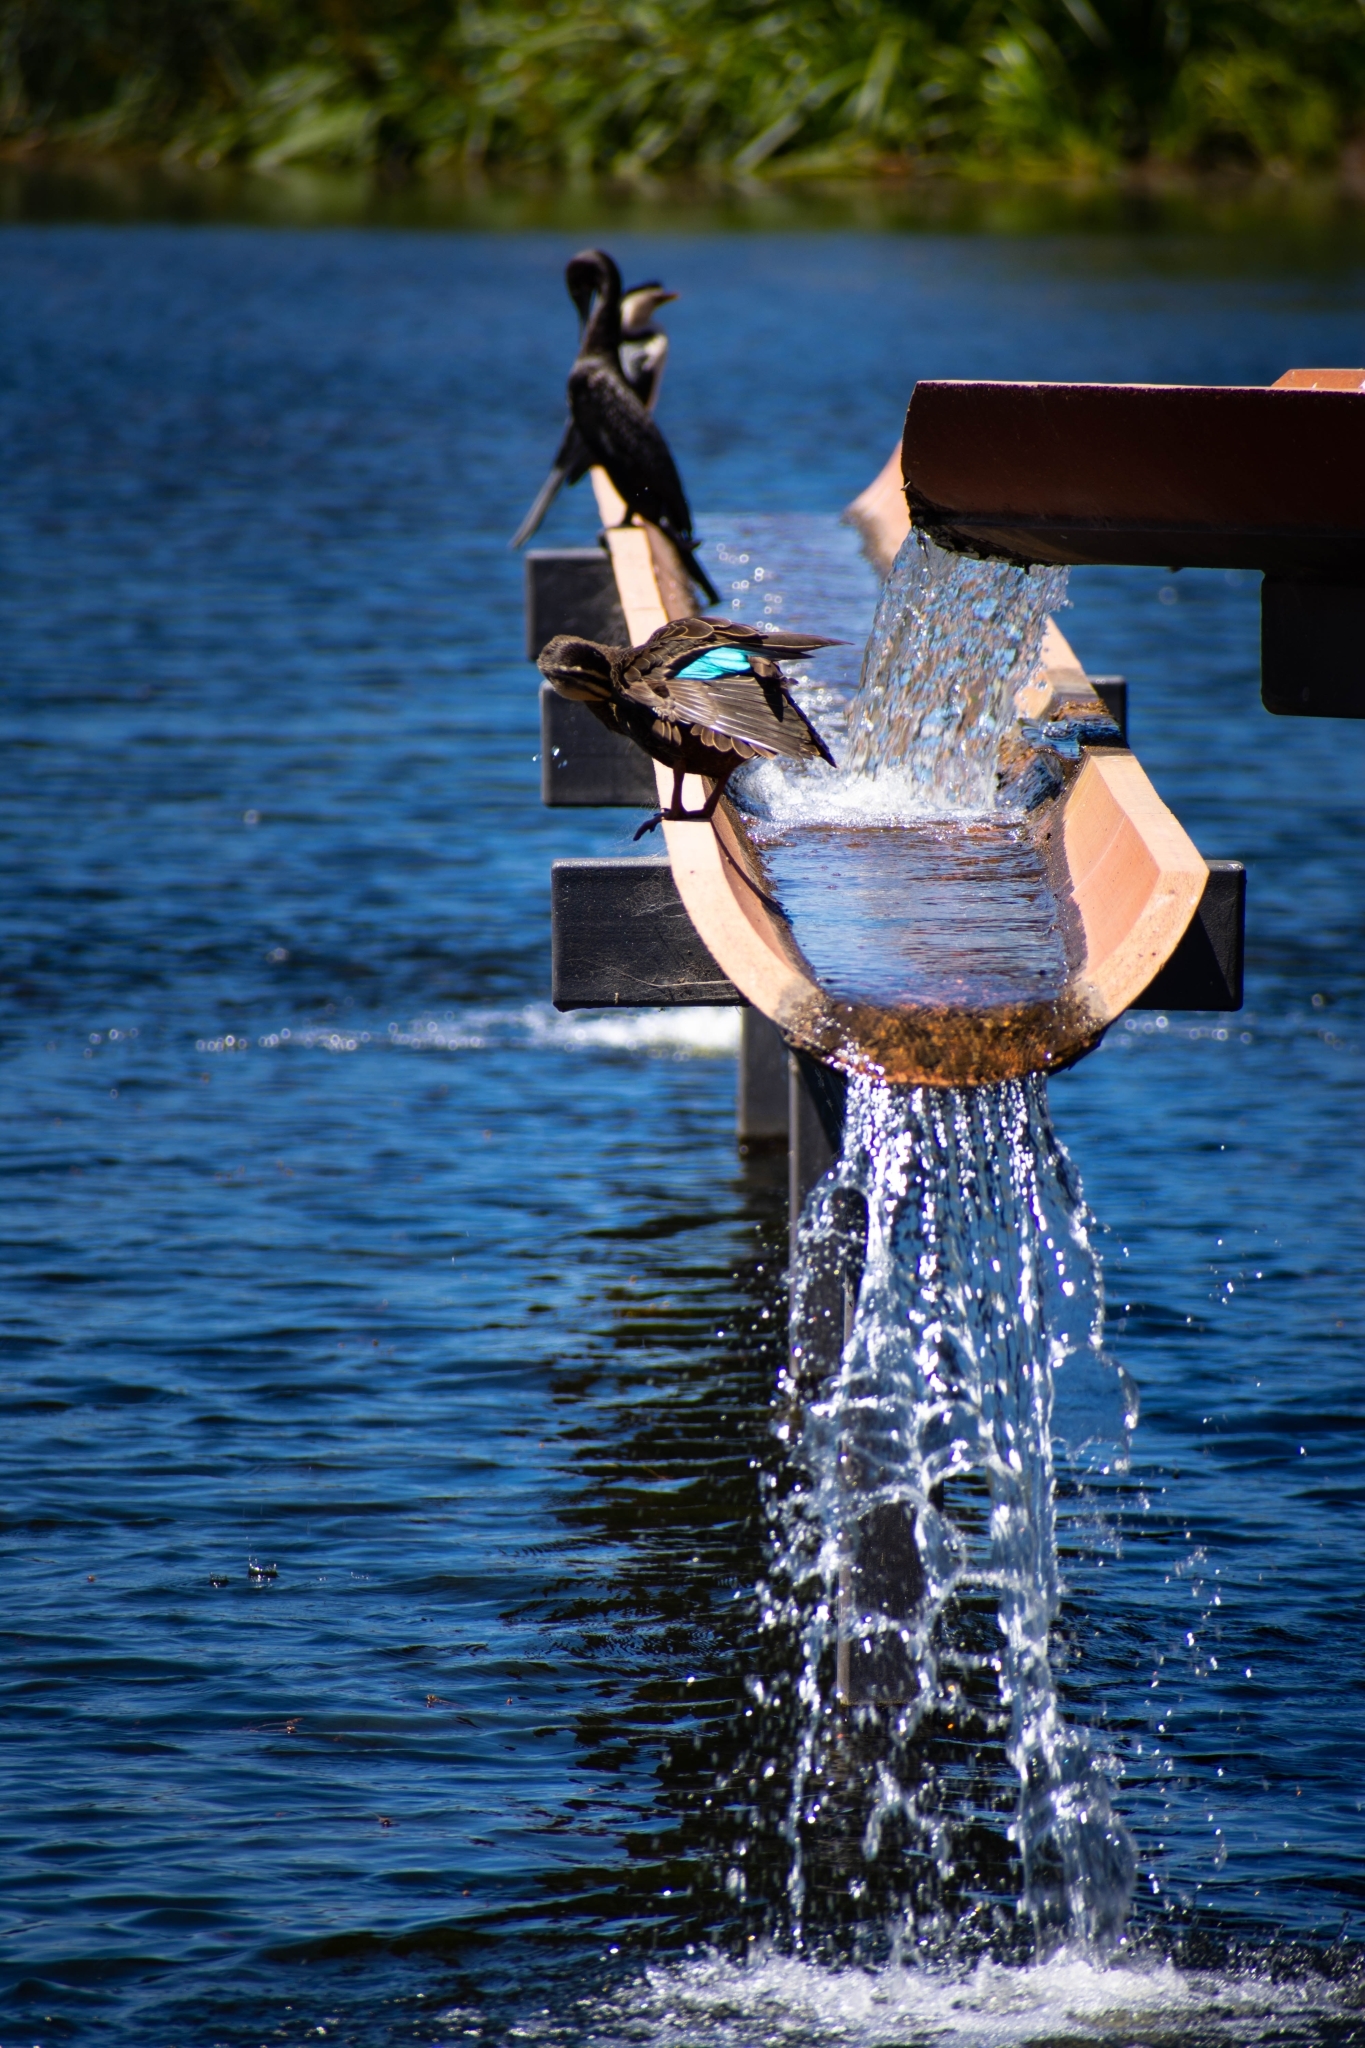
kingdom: Animalia
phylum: Chordata
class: Aves
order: Anseriformes
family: Anatidae
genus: Anas
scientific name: Anas superciliosa
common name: Pacific black duck
